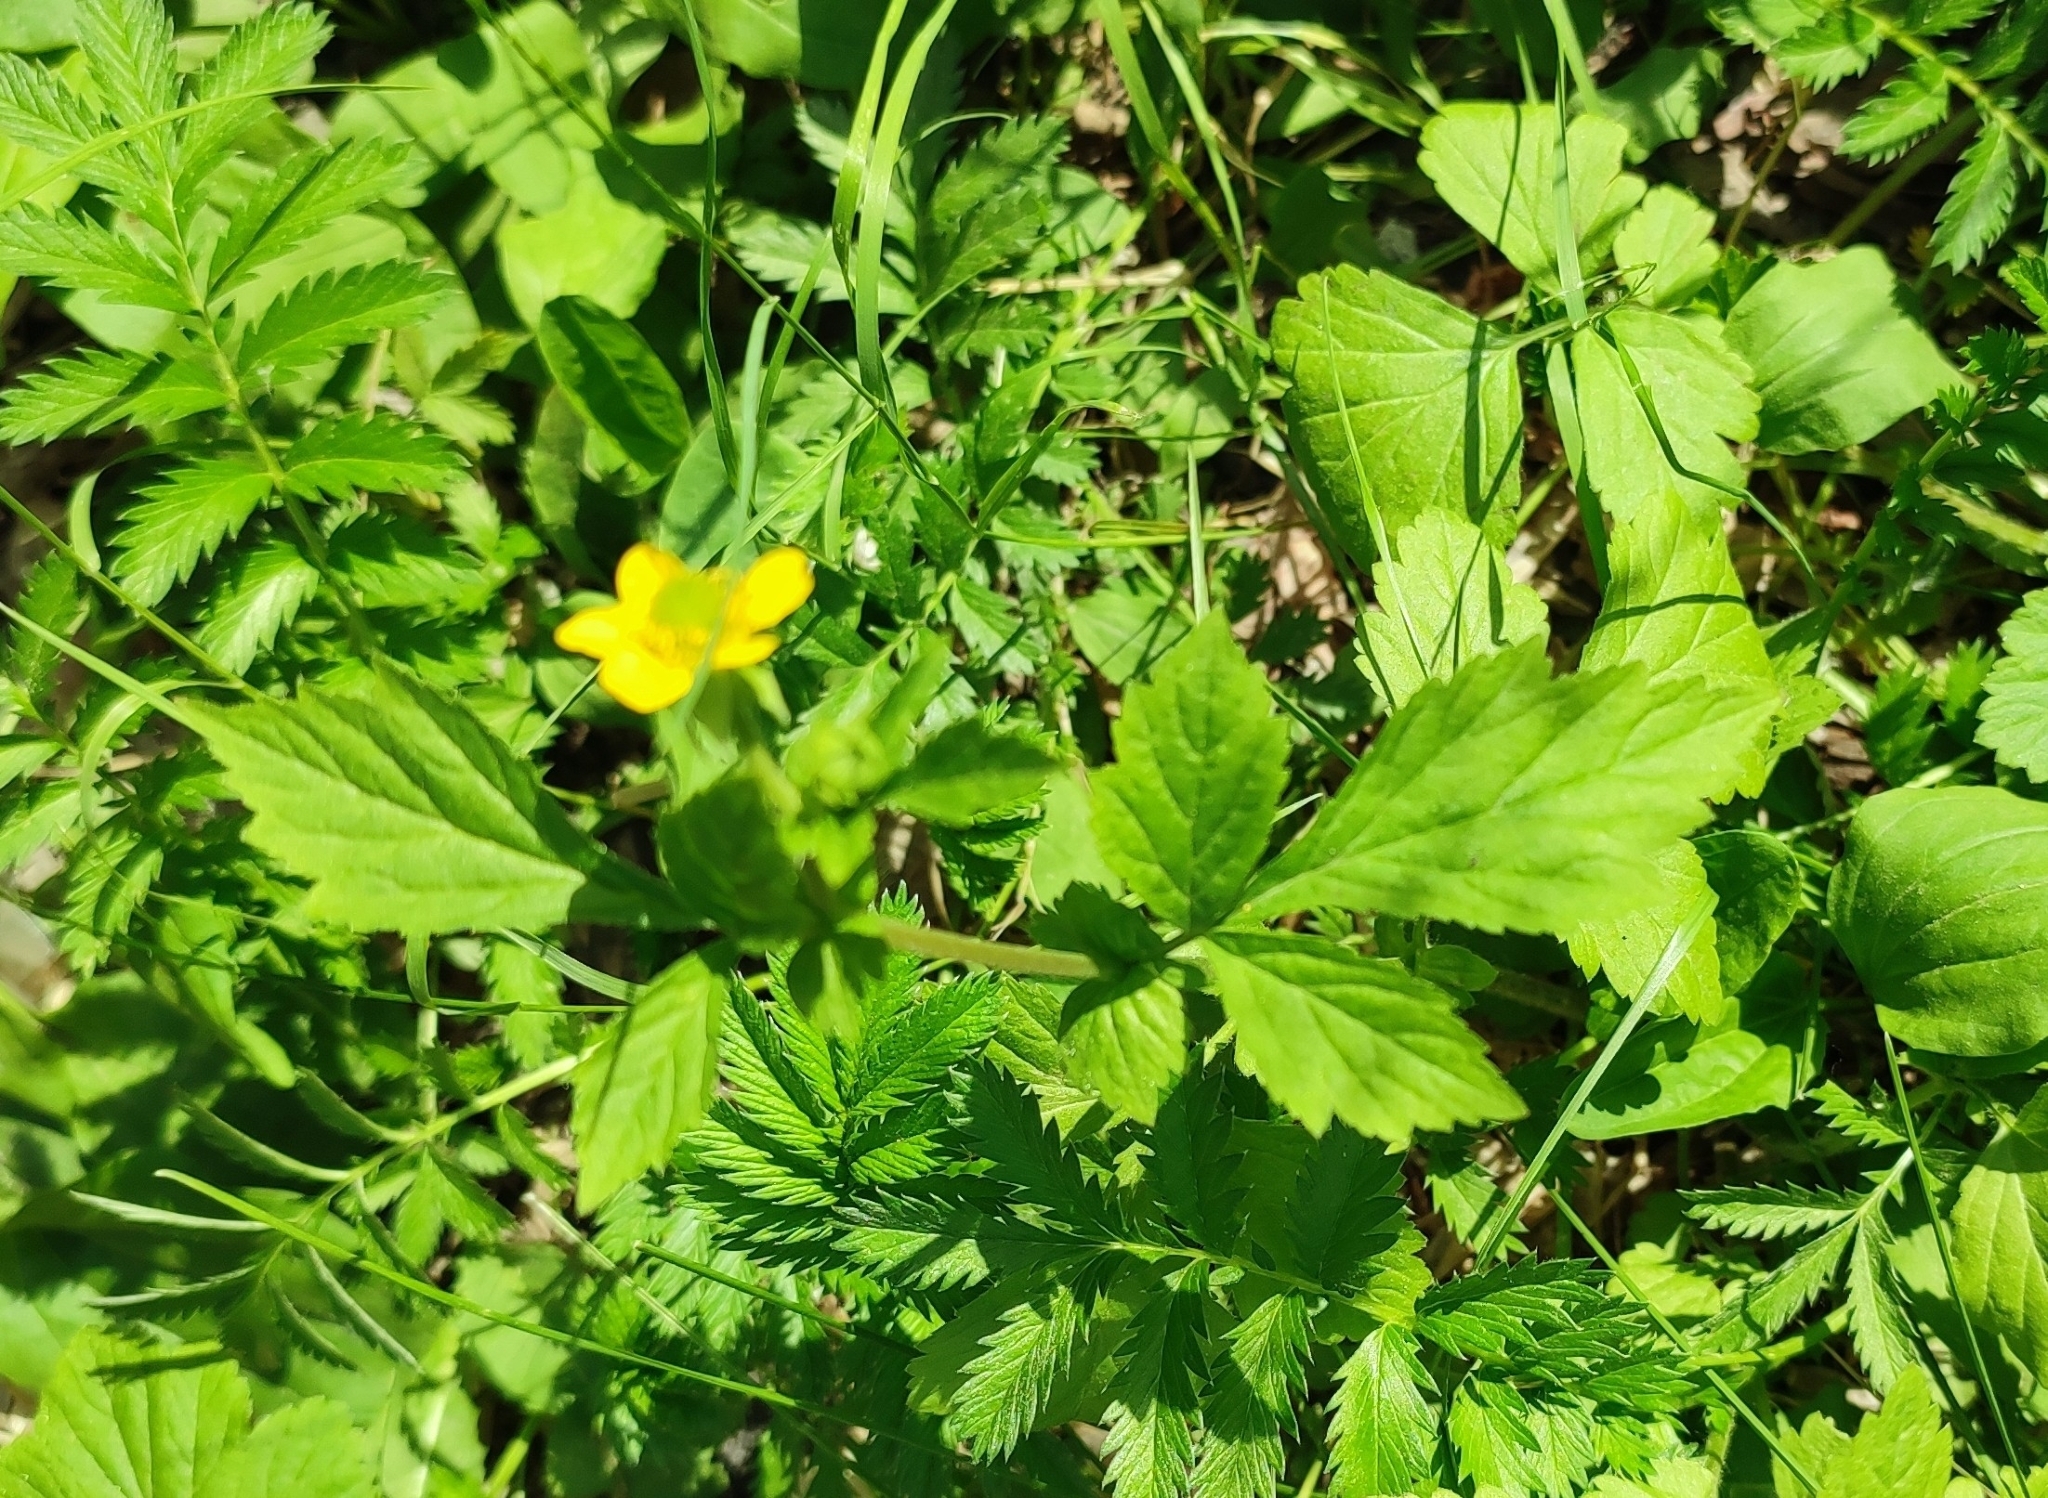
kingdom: Plantae
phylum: Tracheophyta
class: Magnoliopsida
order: Rosales
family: Rosaceae
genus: Geum
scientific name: Geum aleppicum
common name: Yellow avens
